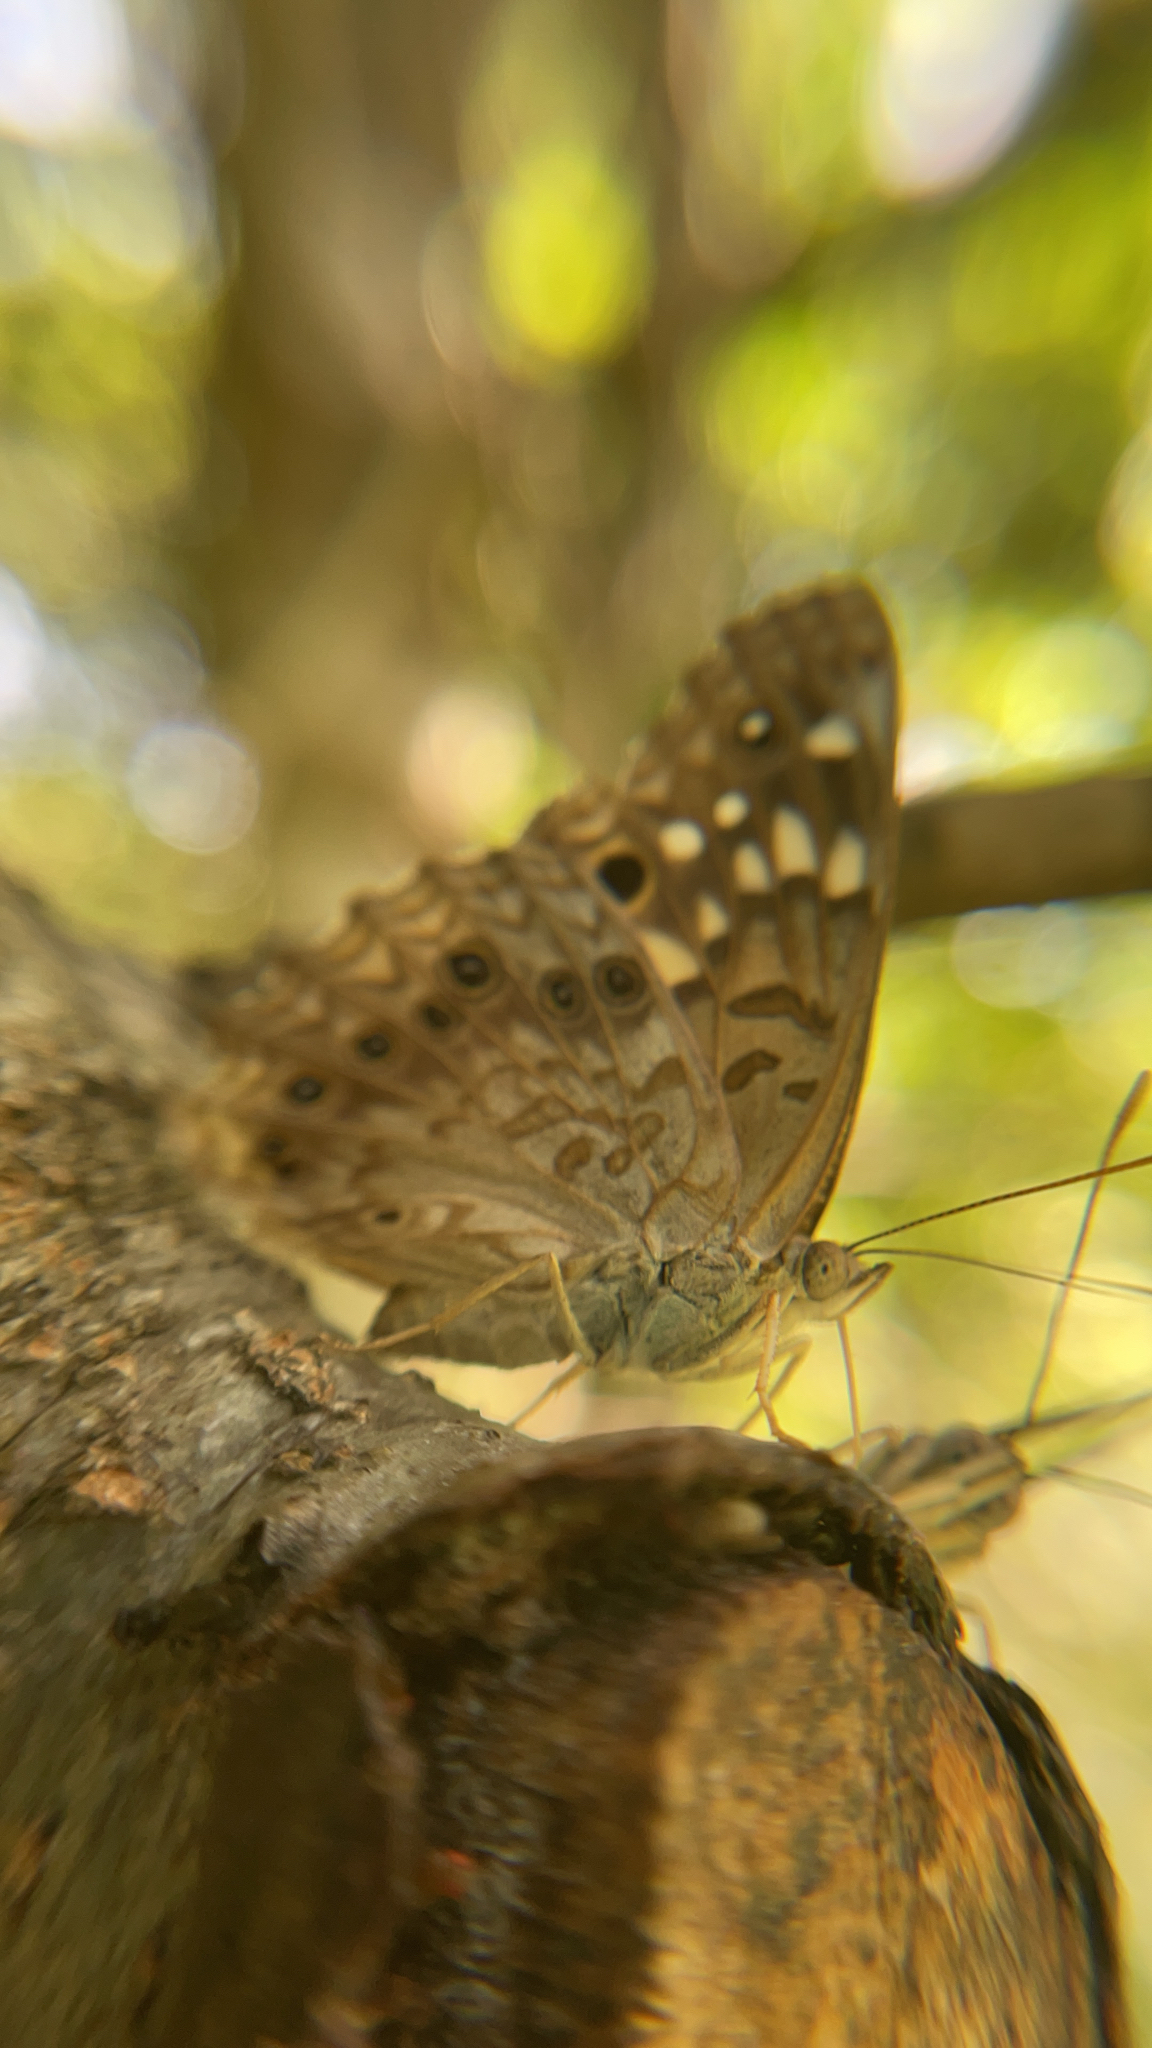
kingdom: Animalia
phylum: Arthropoda
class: Insecta
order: Lepidoptera
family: Nymphalidae
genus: Asterocampa
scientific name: Asterocampa celtis
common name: Hackberry emperor
